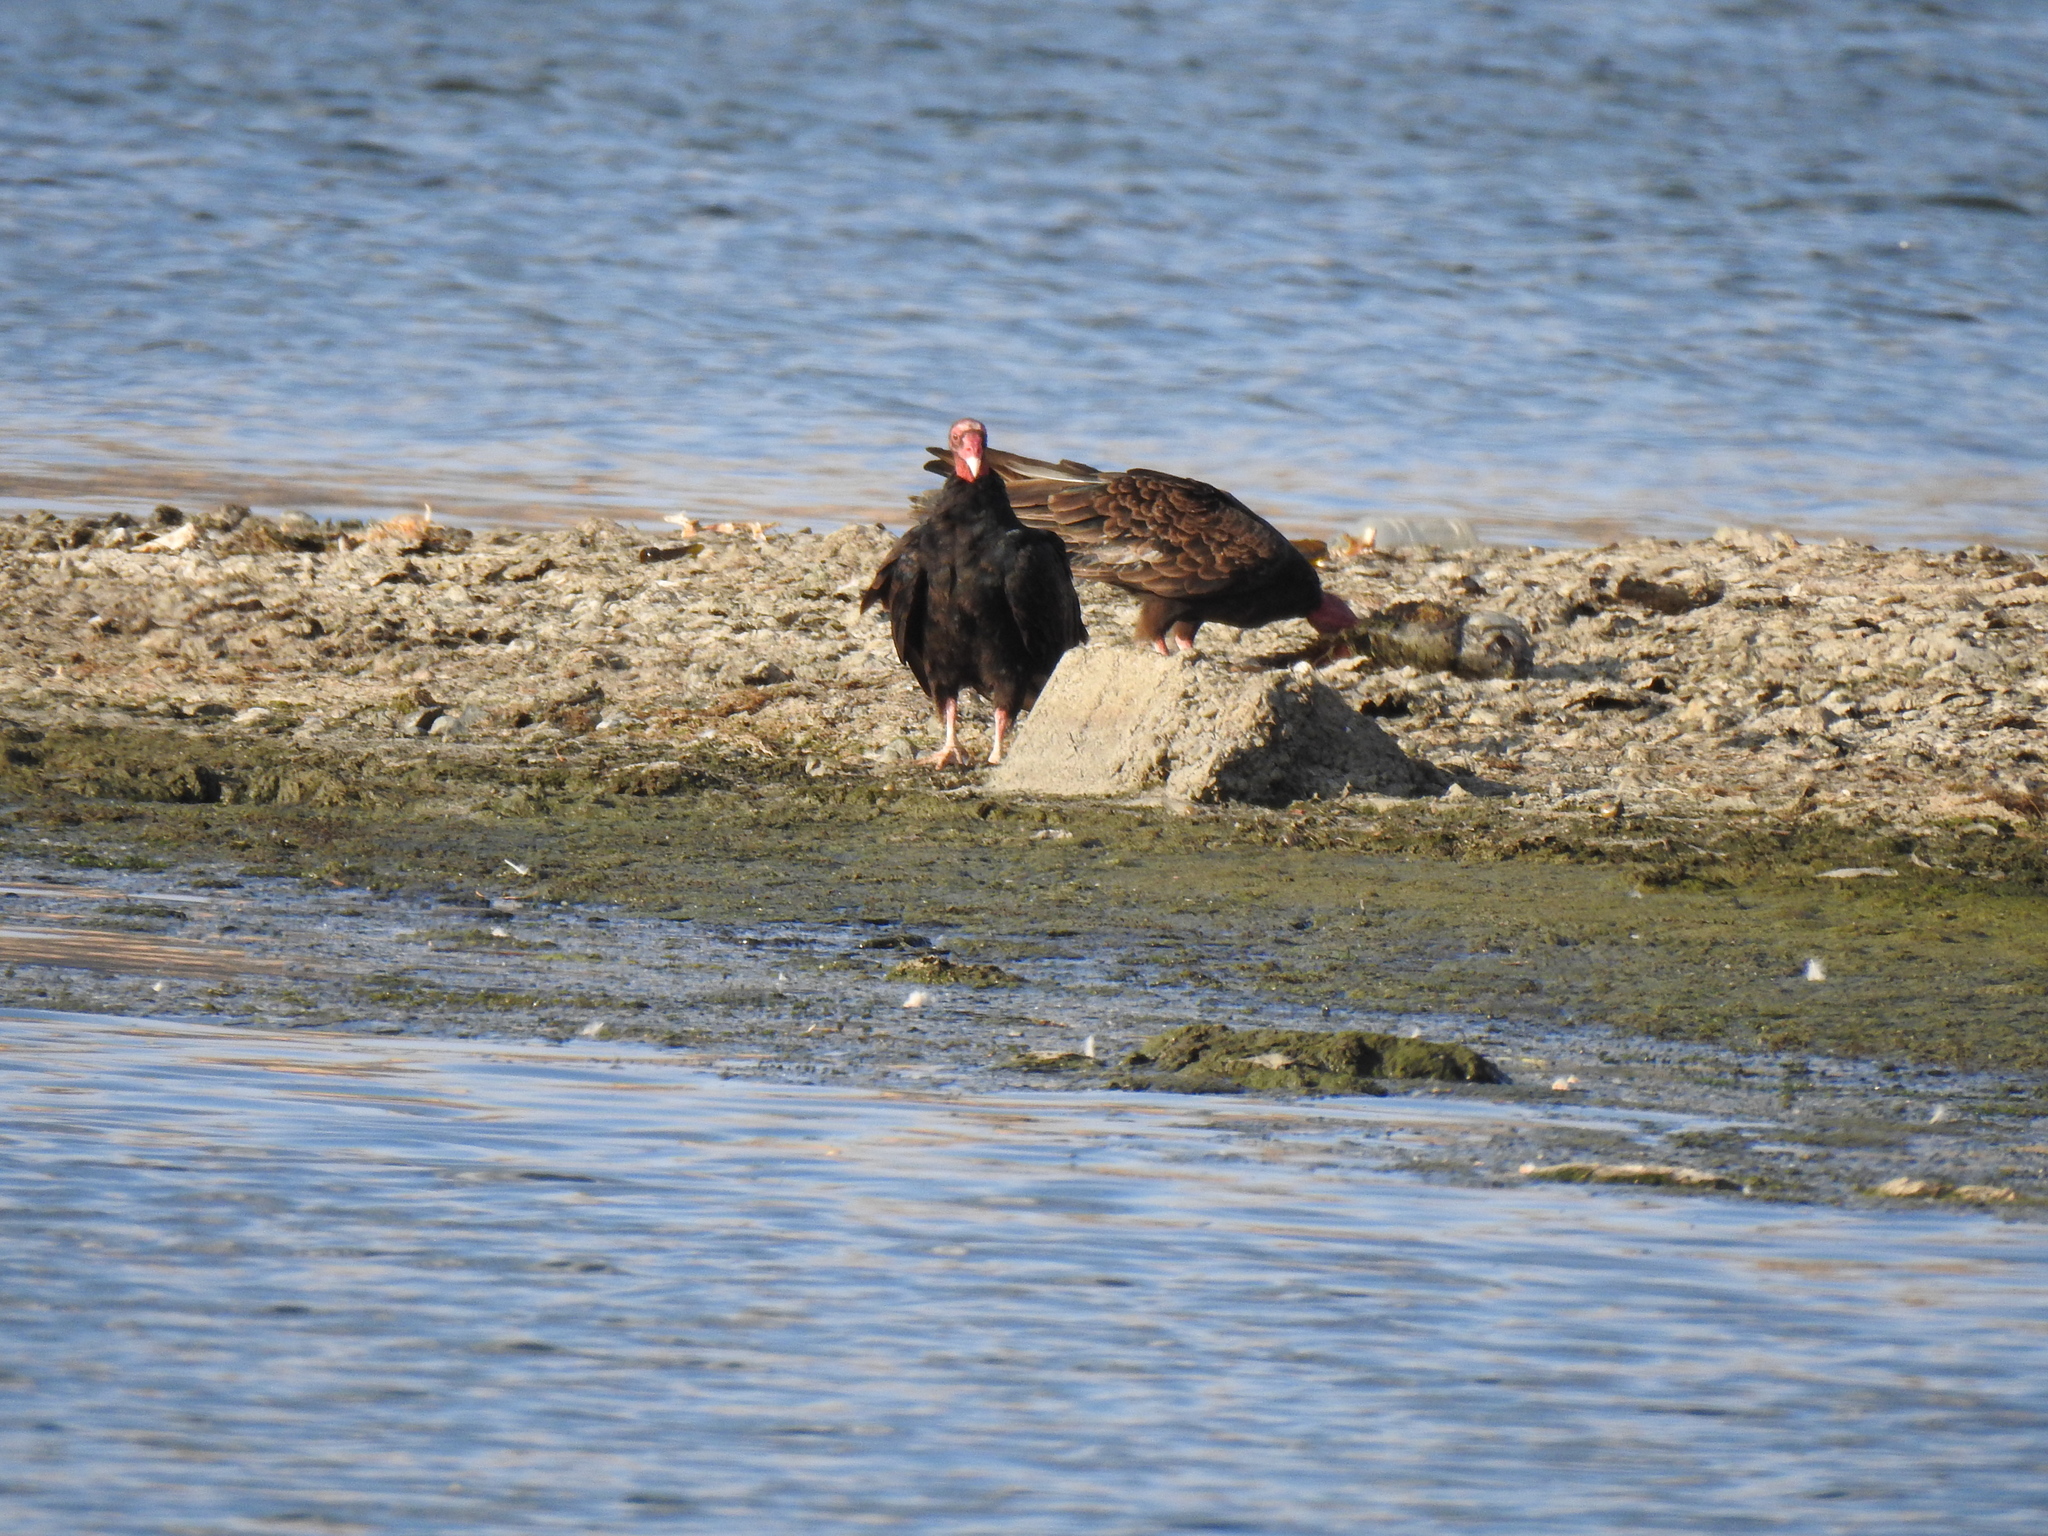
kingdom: Animalia
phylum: Chordata
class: Aves
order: Accipitriformes
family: Cathartidae
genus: Cathartes
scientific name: Cathartes aura
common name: Turkey vulture
